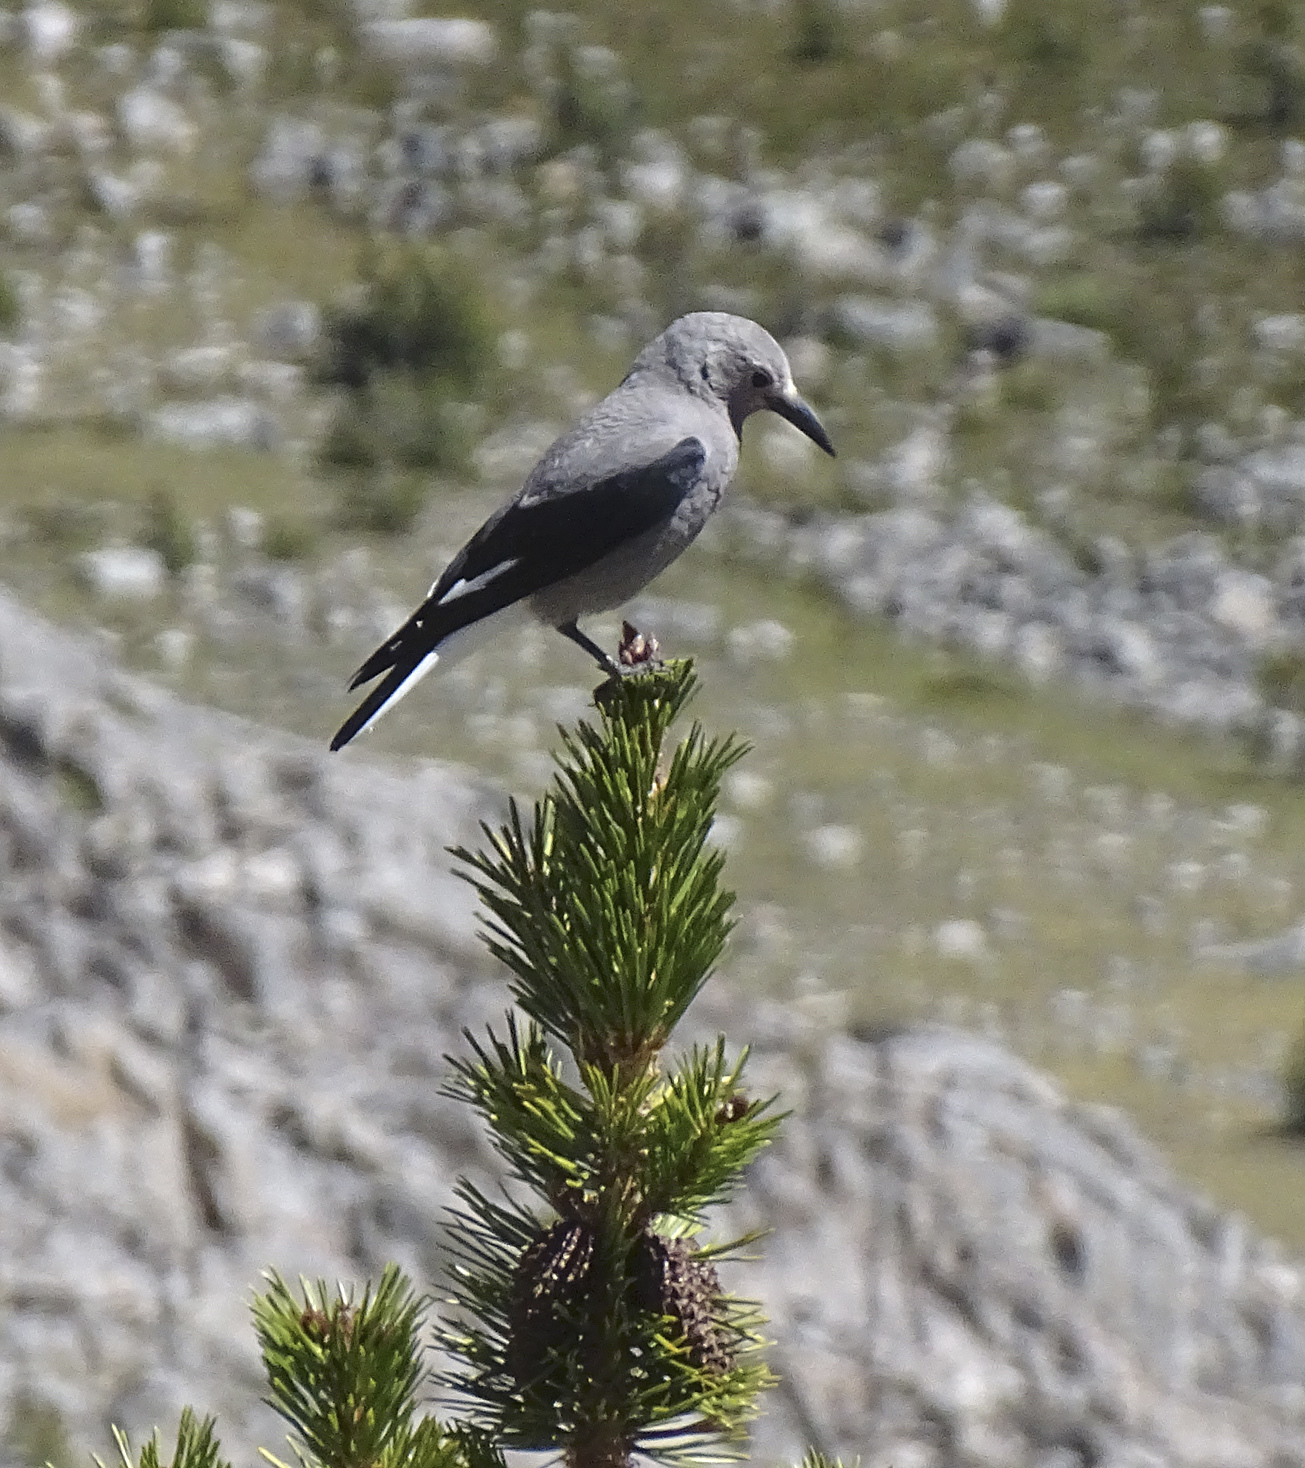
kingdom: Animalia
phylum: Chordata
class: Aves
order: Passeriformes
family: Corvidae
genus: Nucifraga
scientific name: Nucifraga columbiana
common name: Clark's nutcracker
